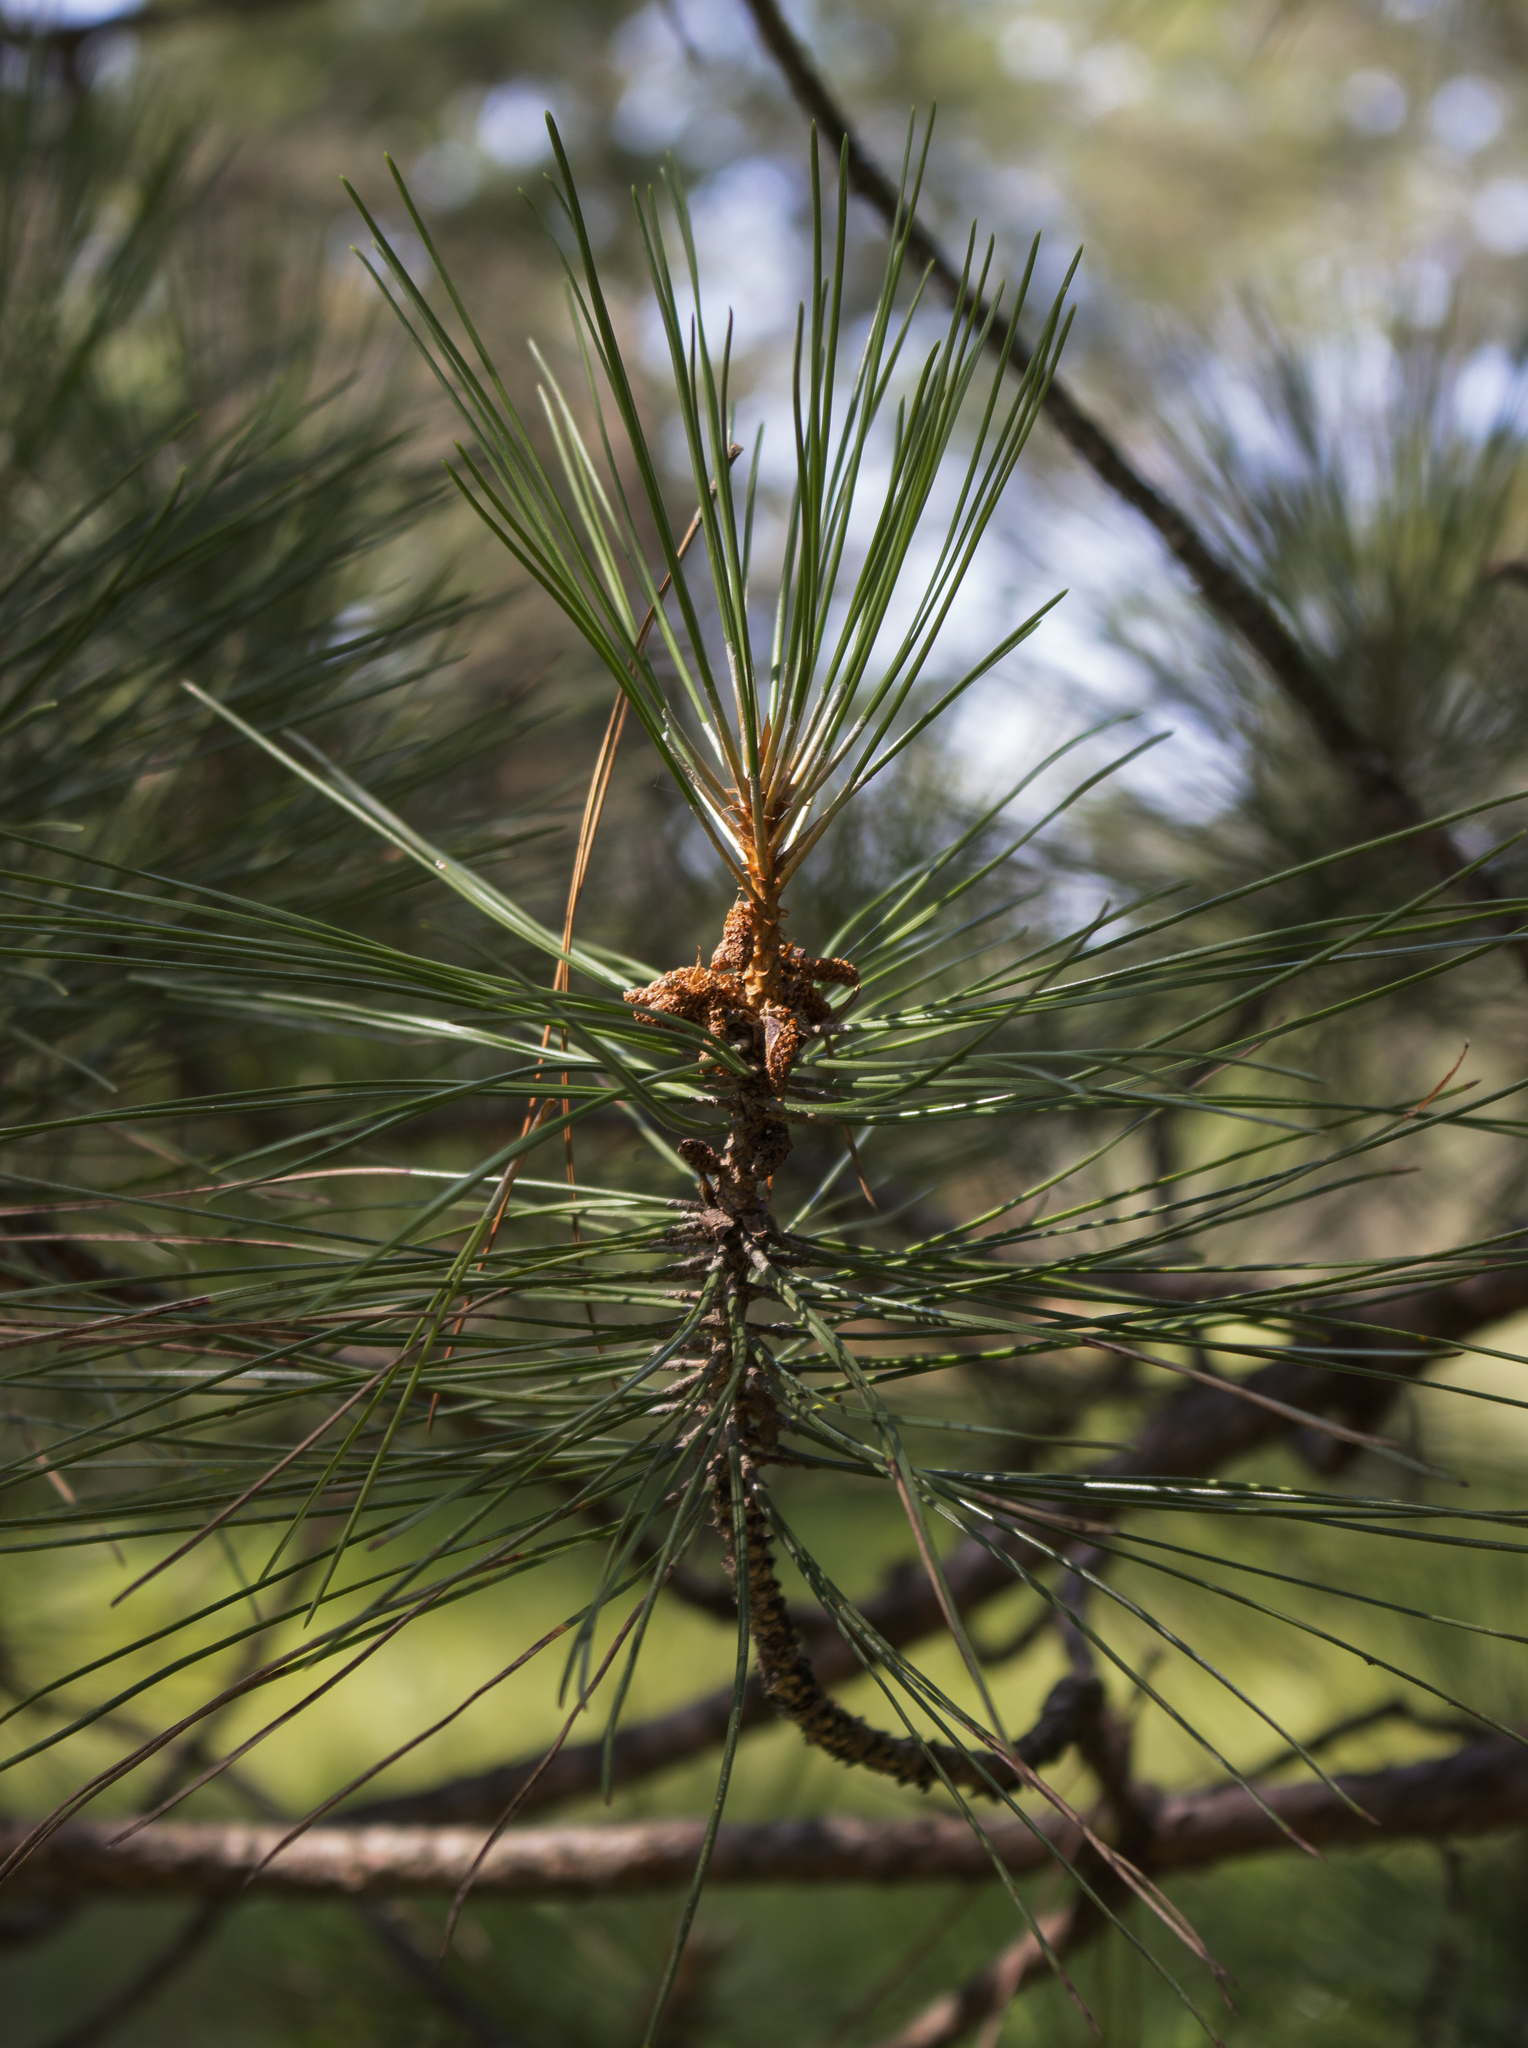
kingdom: Plantae
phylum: Tracheophyta
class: Pinopsida
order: Pinales
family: Pinaceae
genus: Pinus
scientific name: Pinus resinosa
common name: Norway pine
